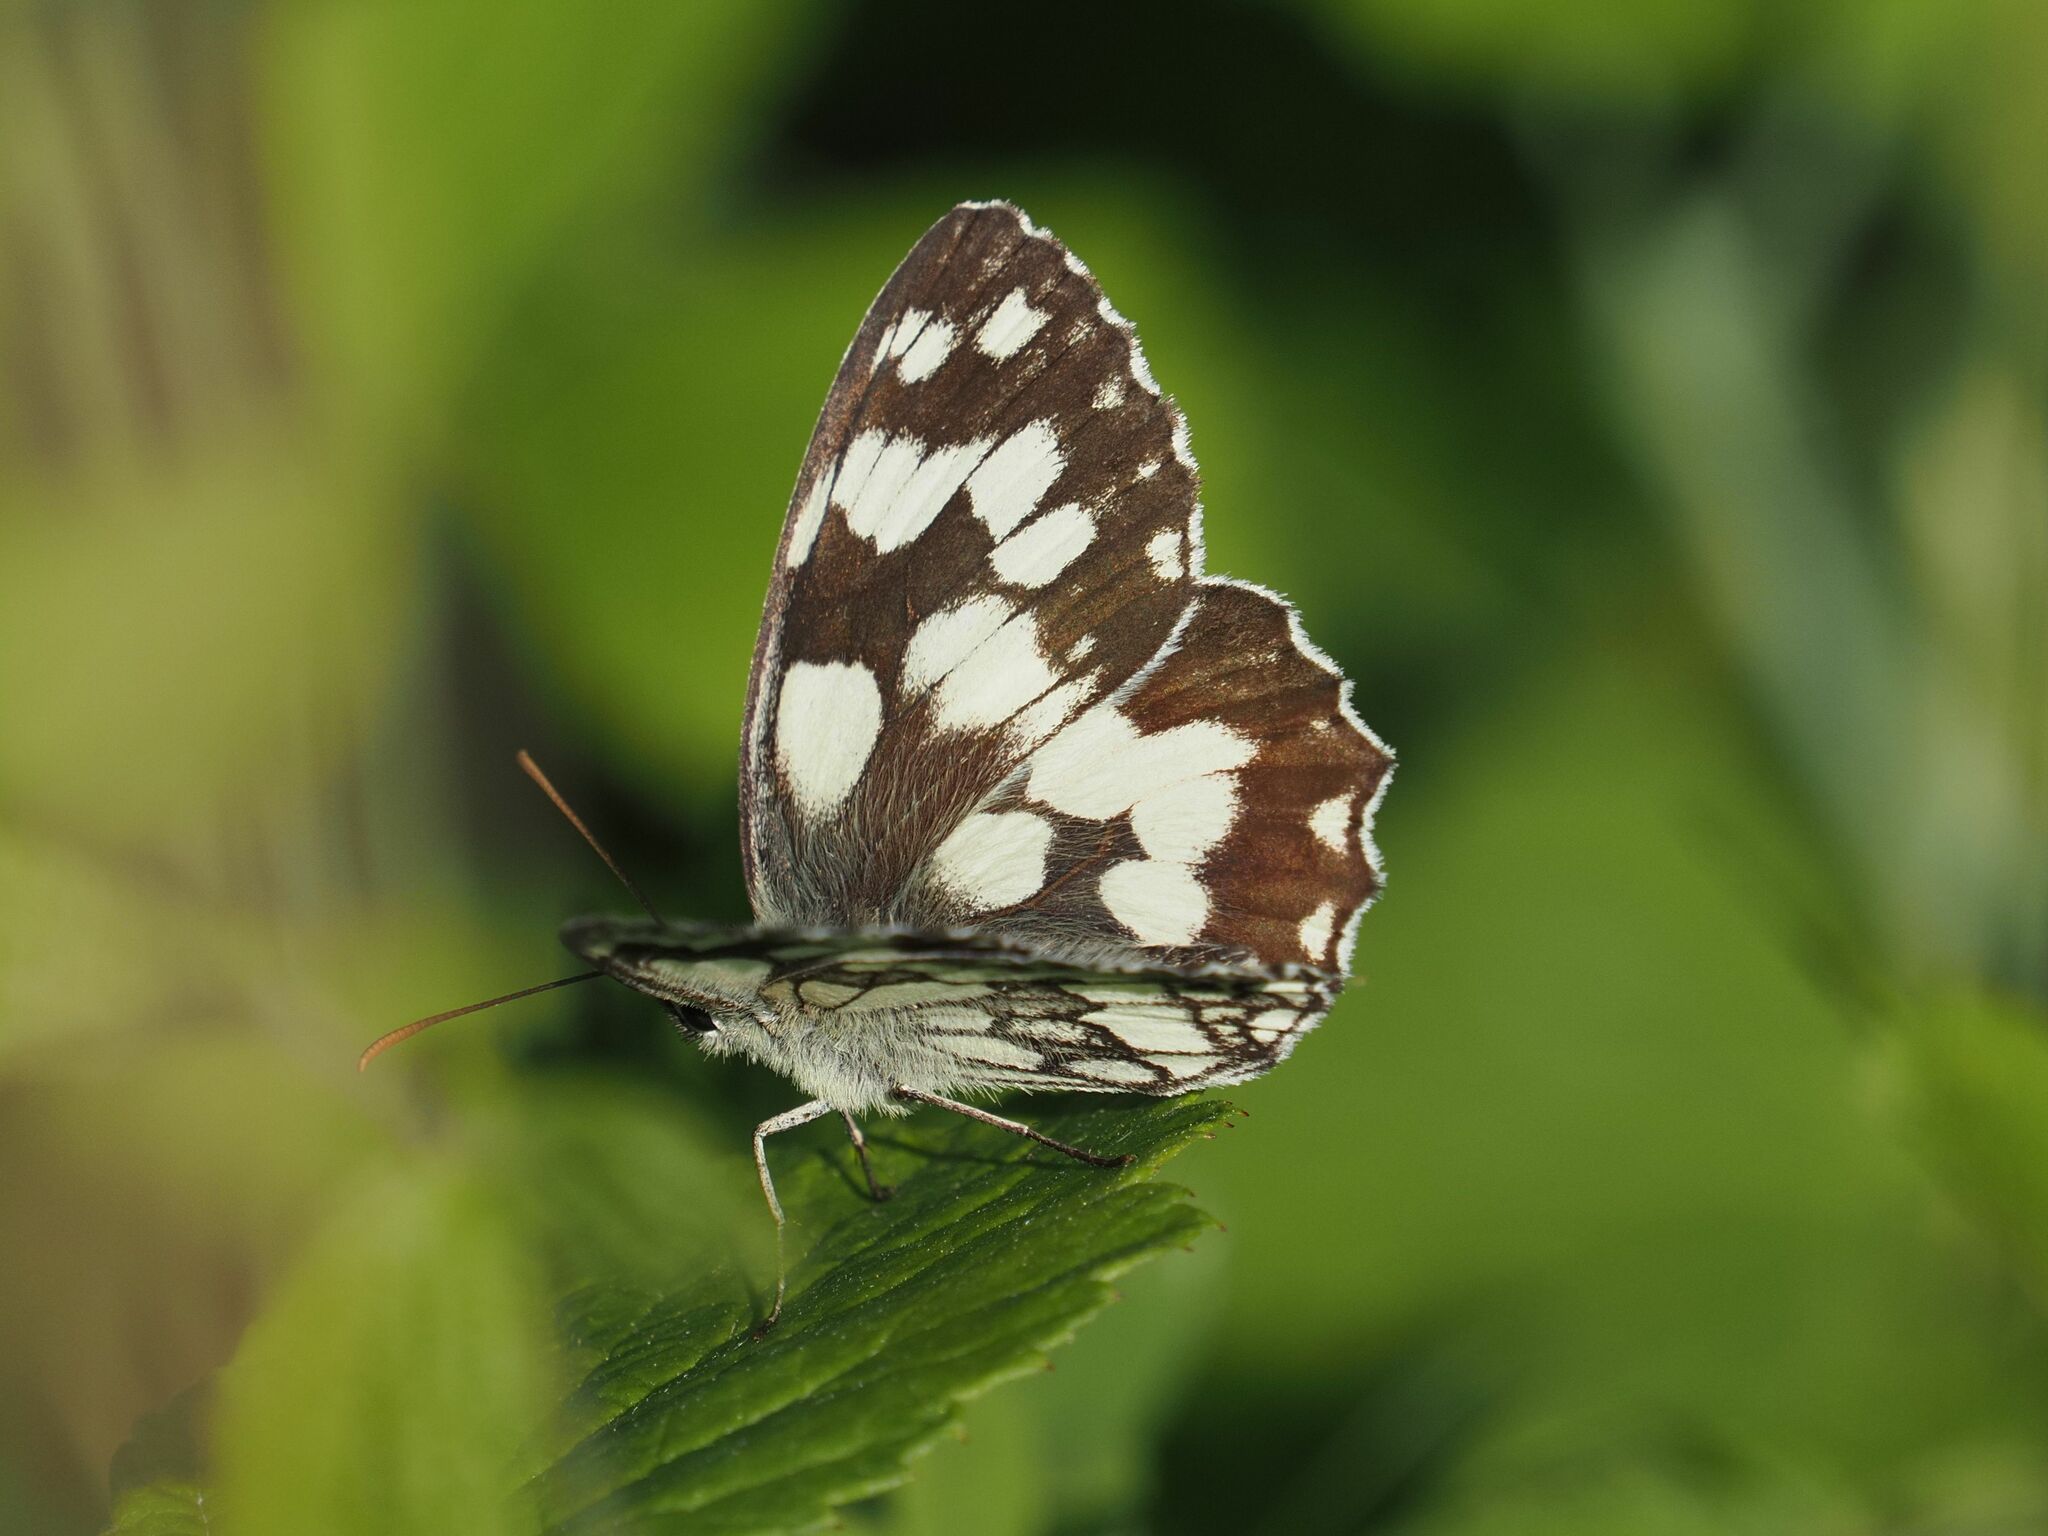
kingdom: Animalia
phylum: Arthropoda
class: Insecta
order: Lepidoptera
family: Nymphalidae
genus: Melanargia
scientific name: Melanargia galathea
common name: Marbled white
